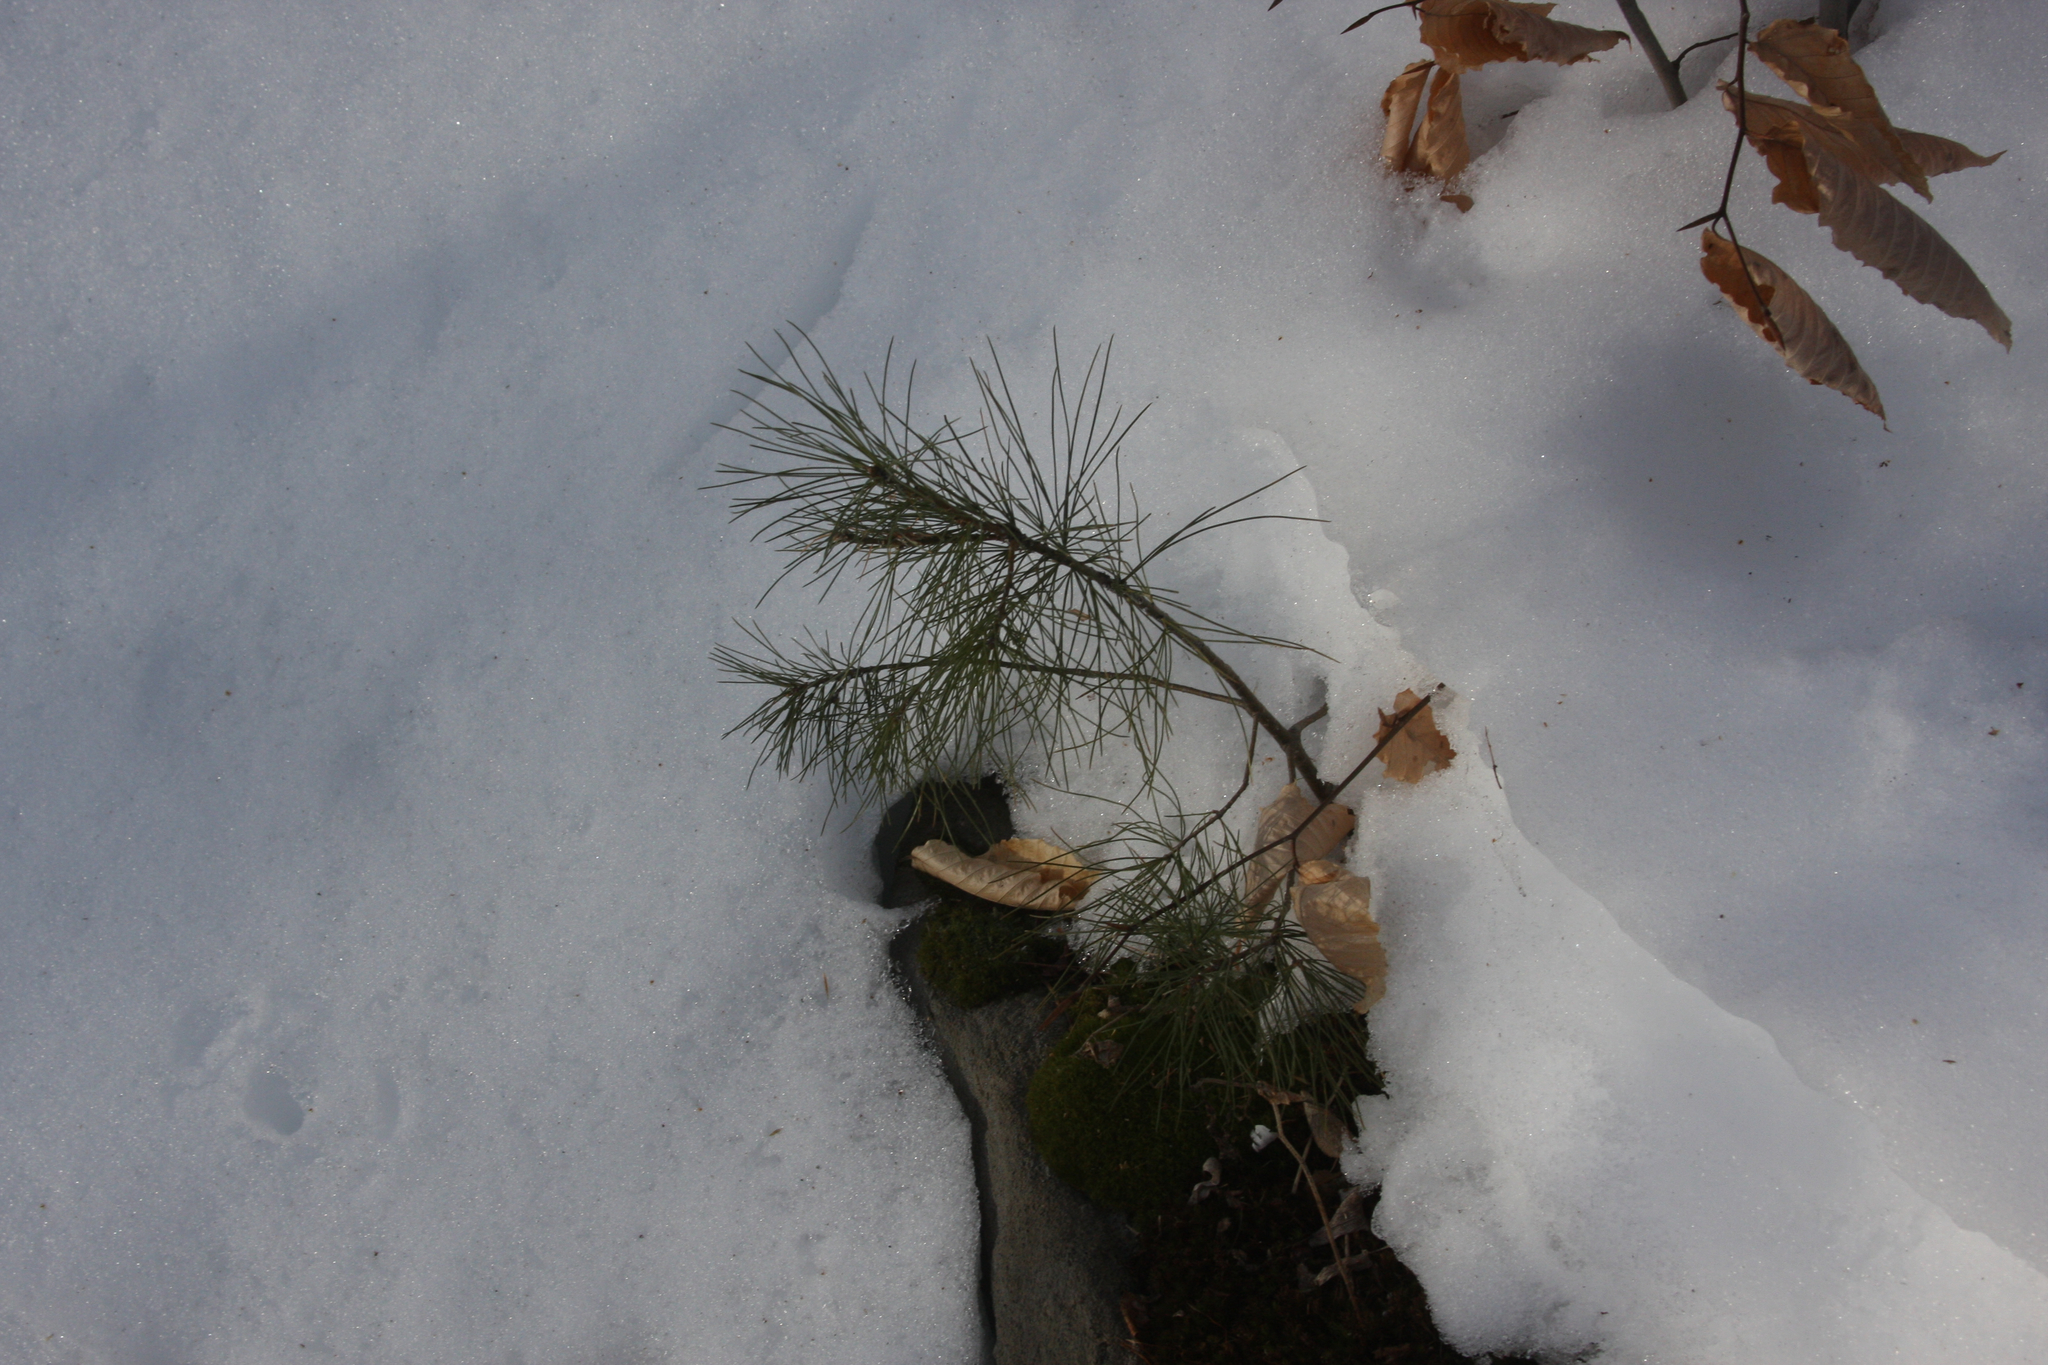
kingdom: Plantae
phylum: Tracheophyta
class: Pinopsida
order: Pinales
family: Pinaceae
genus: Pinus
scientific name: Pinus strobus
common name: Weymouth pine
